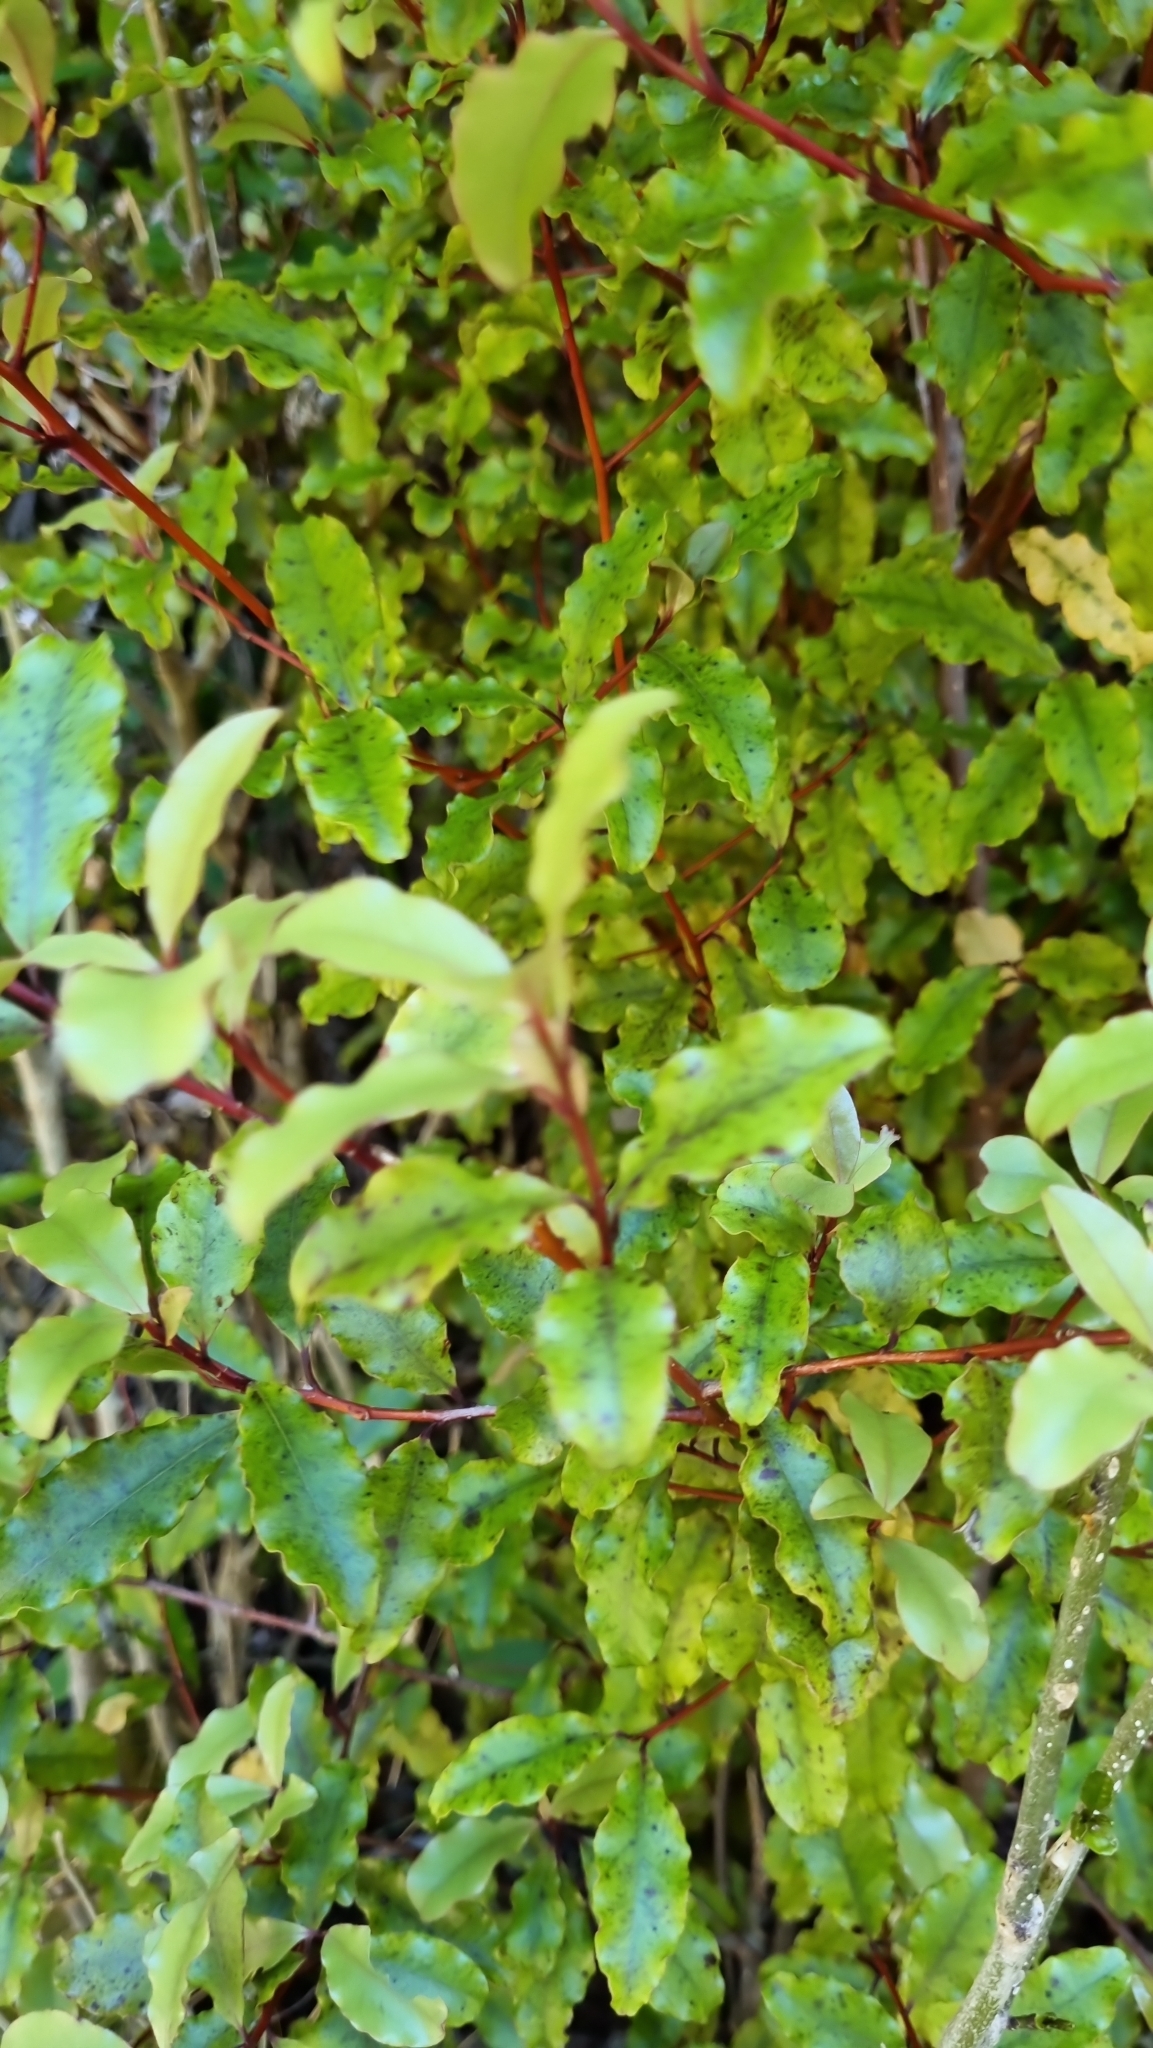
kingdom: Plantae
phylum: Tracheophyta
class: Magnoliopsida
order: Ericales
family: Primulaceae
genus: Myrsine
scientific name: Myrsine australis
